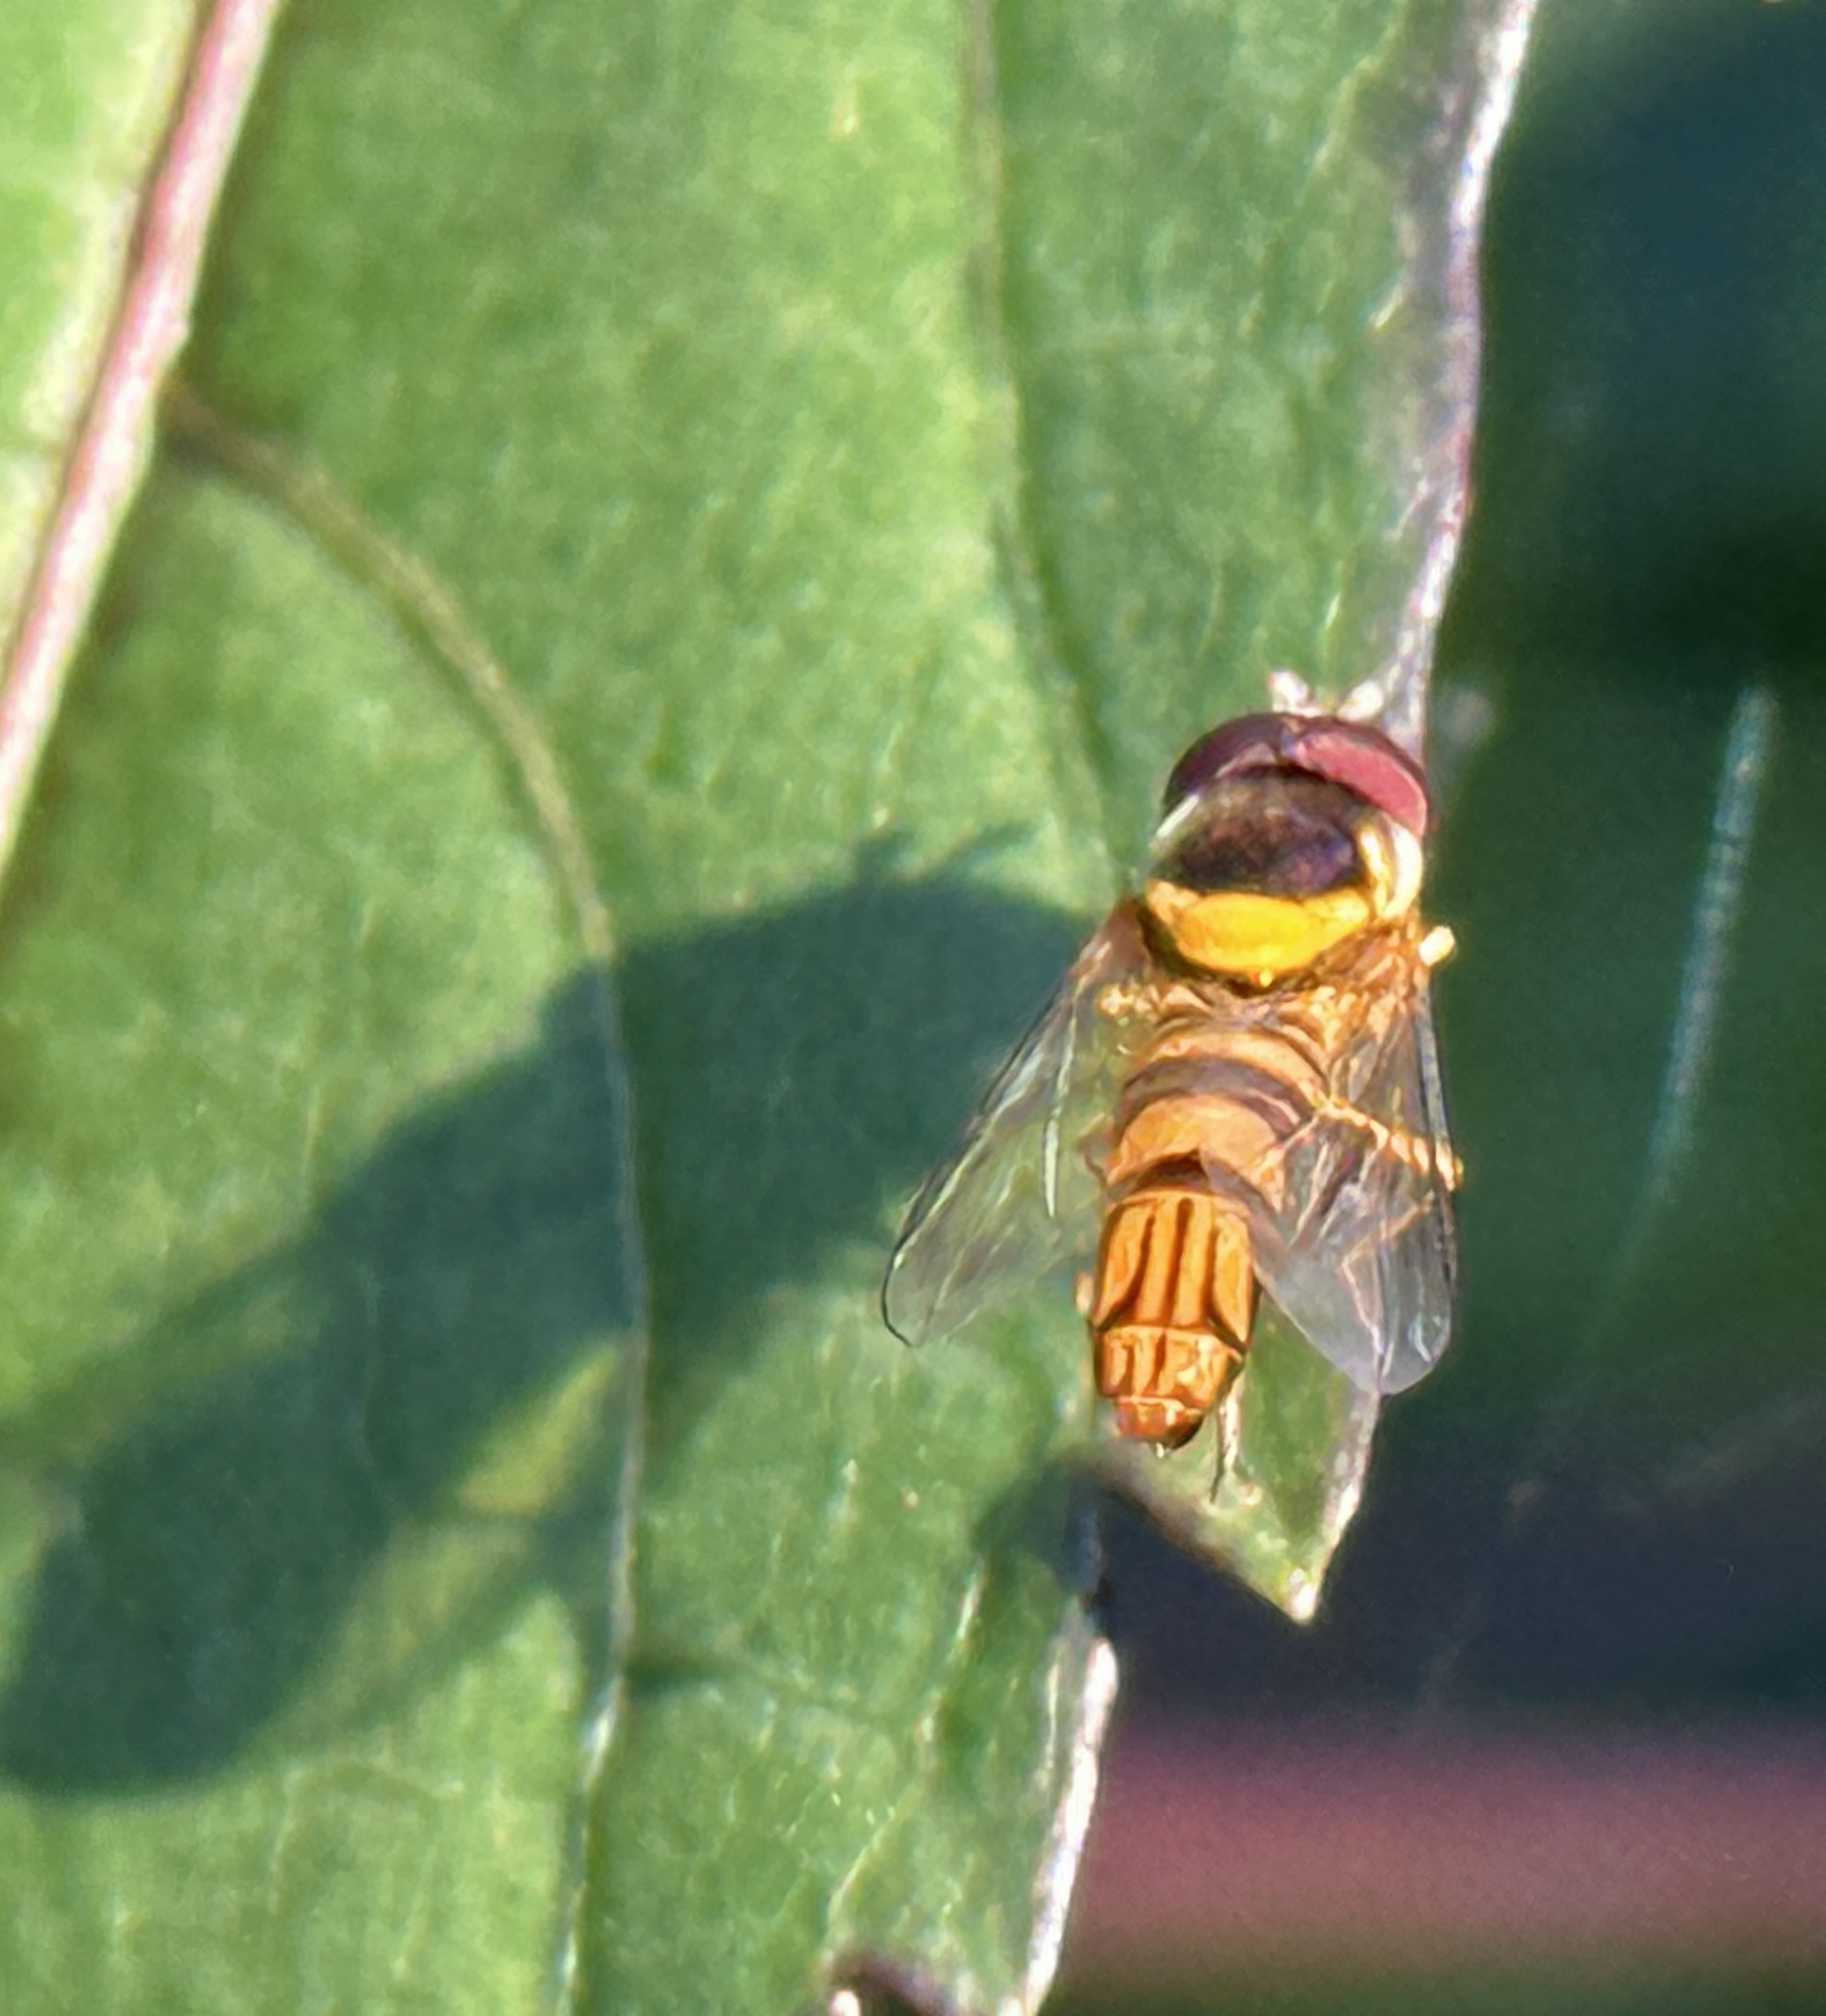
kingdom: Animalia
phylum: Arthropoda
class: Insecta
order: Diptera
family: Syrphidae
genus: Allograpta
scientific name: Allograpta obliqua
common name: Common oblique syrphid
